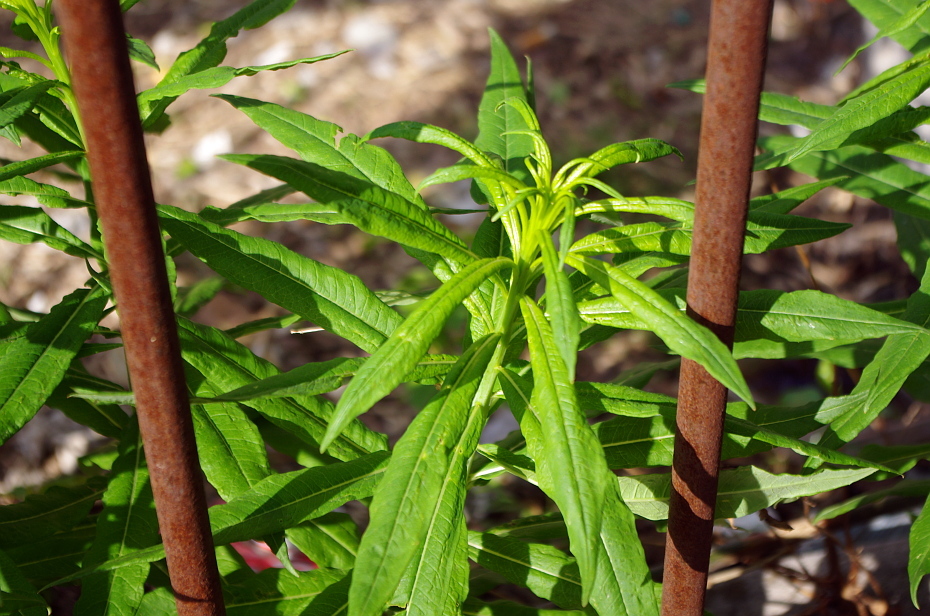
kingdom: Plantae
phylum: Tracheophyta
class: Magnoliopsida
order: Myrtales
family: Onagraceae
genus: Chamaenerion
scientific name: Chamaenerion angustifolium
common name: Fireweed
